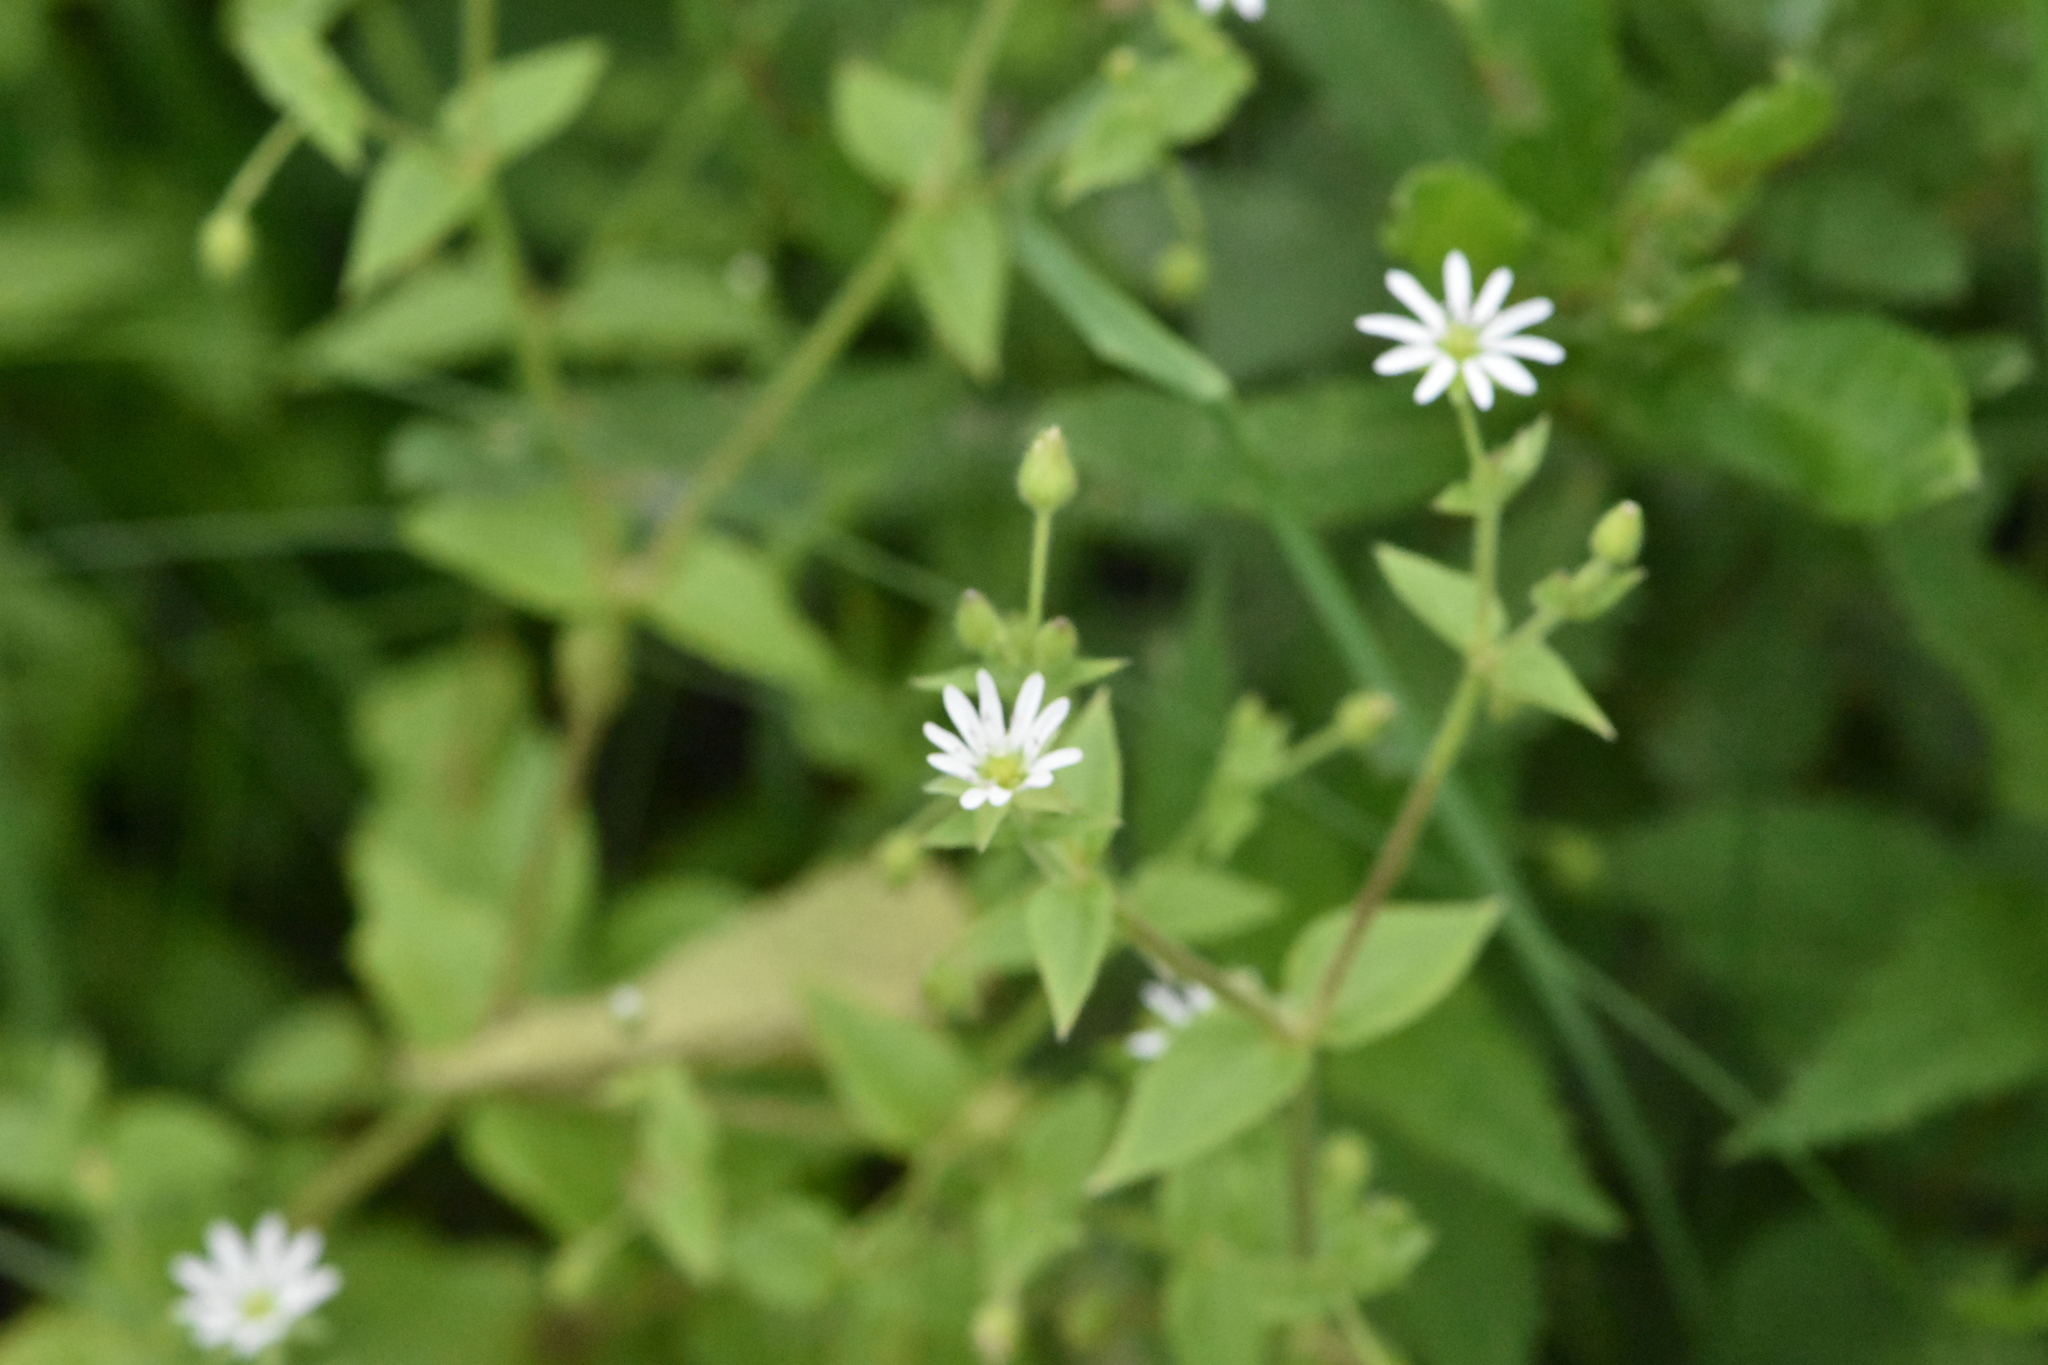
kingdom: Plantae
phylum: Tracheophyta
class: Magnoliopsida
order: Caryophyllales
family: Caryophyllaceae
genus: Stellaria
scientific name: Stellaria aquatica
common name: Water chickweed
